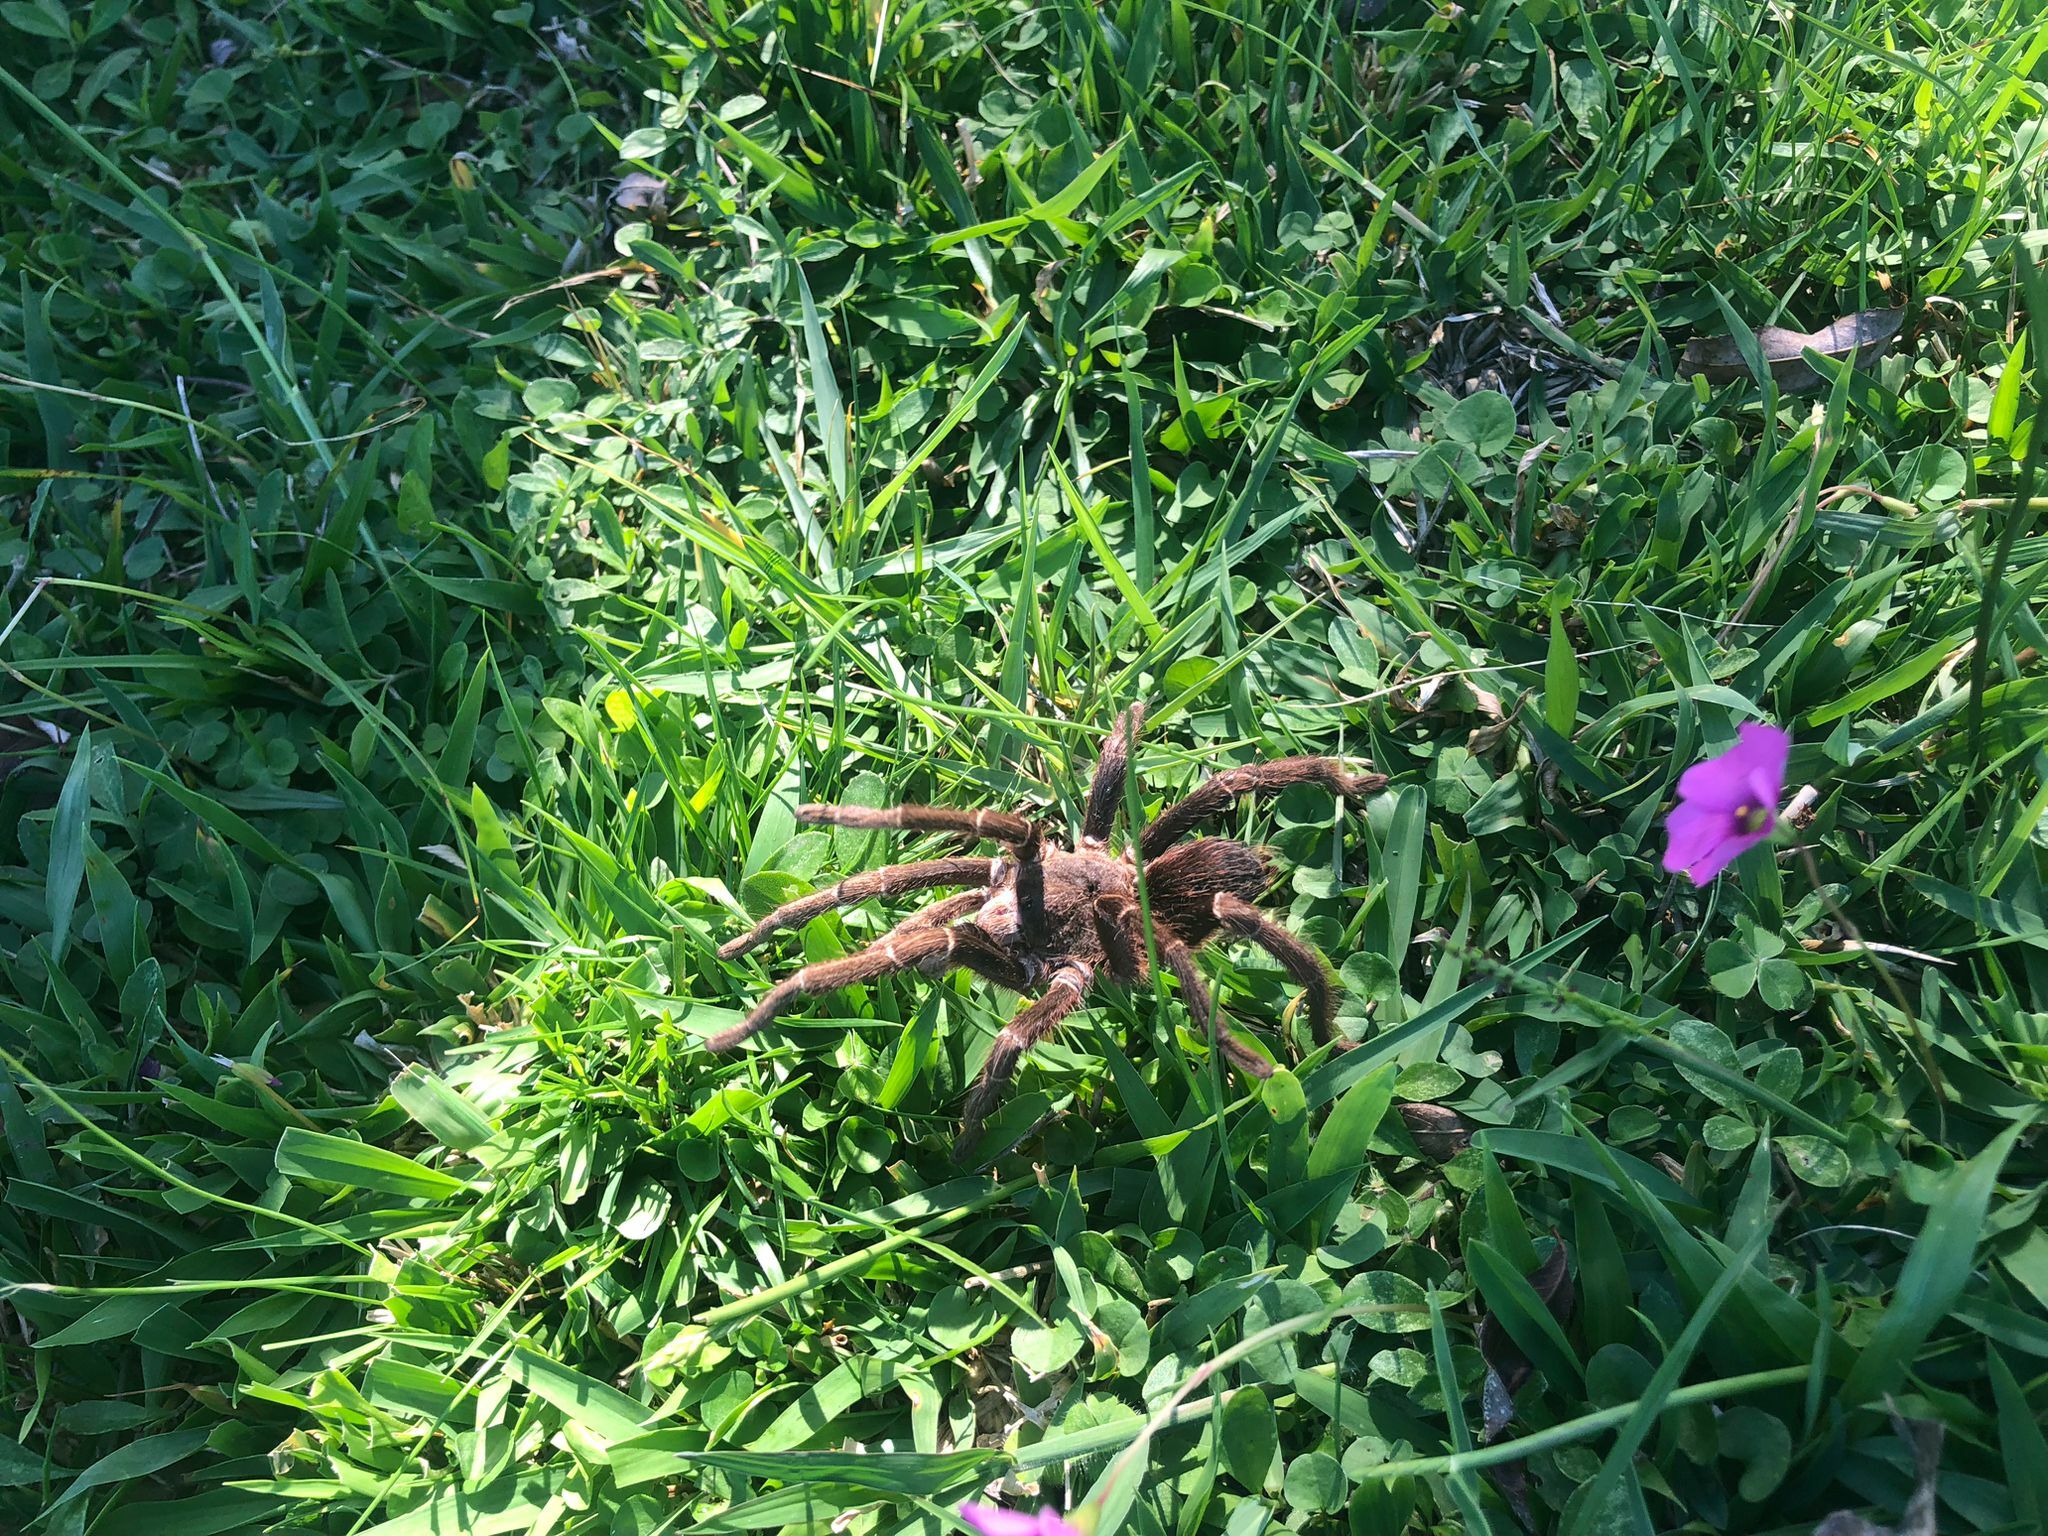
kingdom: Animalia
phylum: Arthropoda
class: Arachnida
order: Araneae
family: Theraphosidae
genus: Eupalaestrus
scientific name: Eupalaestrus weijenberghi
